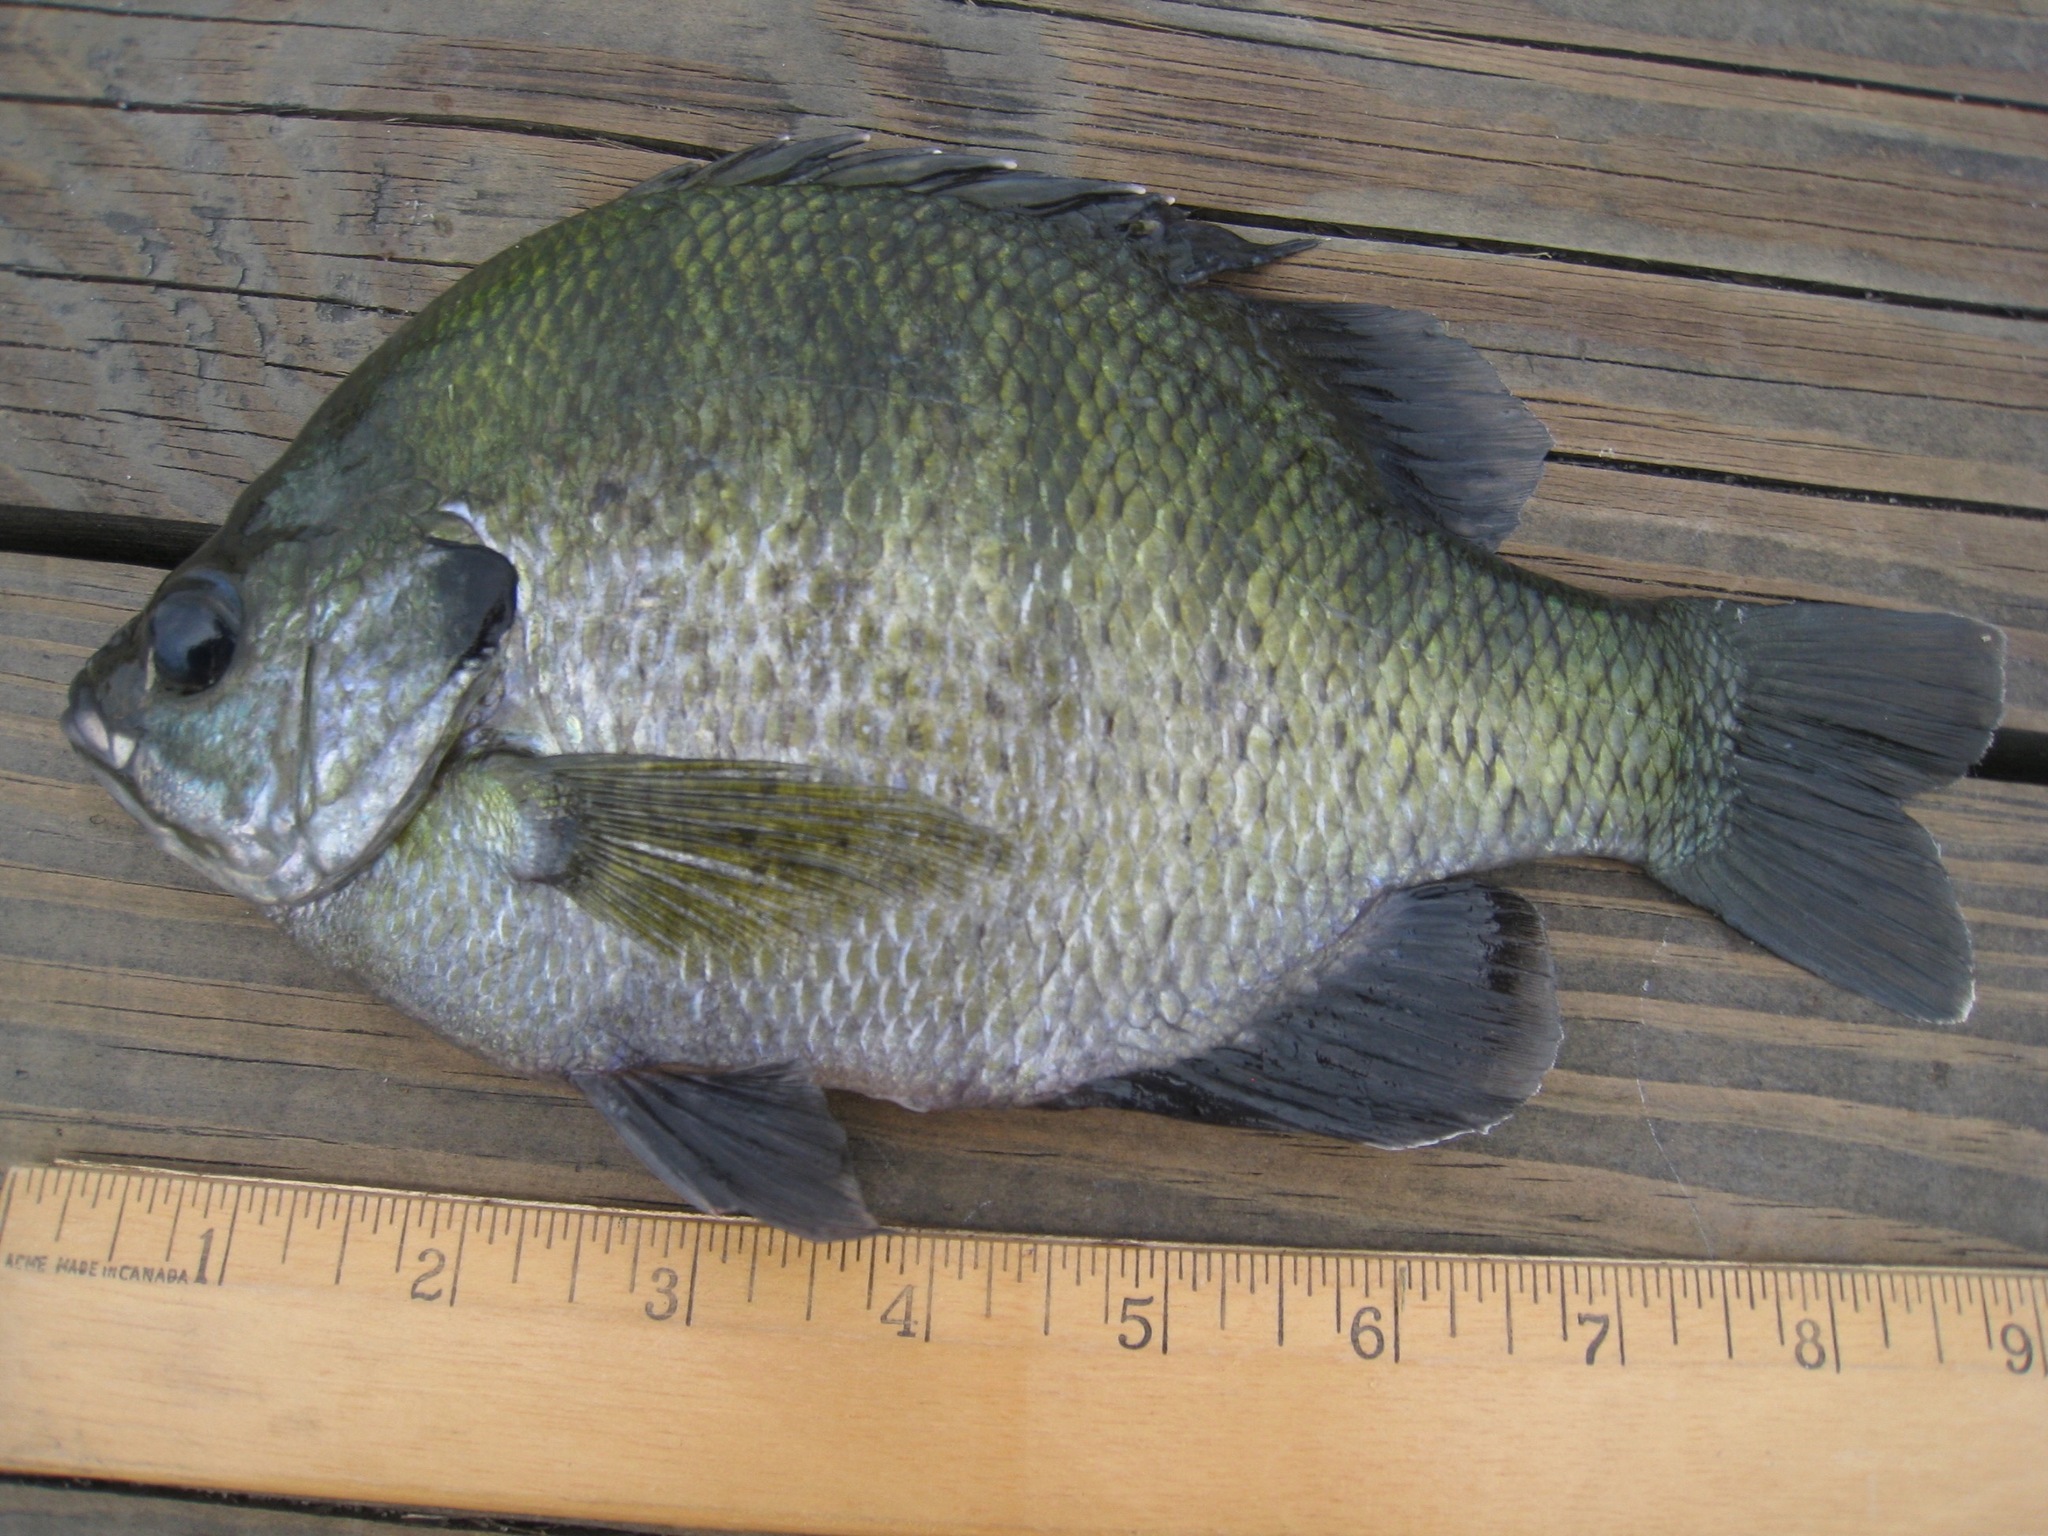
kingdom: Animalia
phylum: Chordata
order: Perciformes
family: Centrarchidae
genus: Lepomis
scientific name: Lepomis macrochirus
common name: Bluegill
